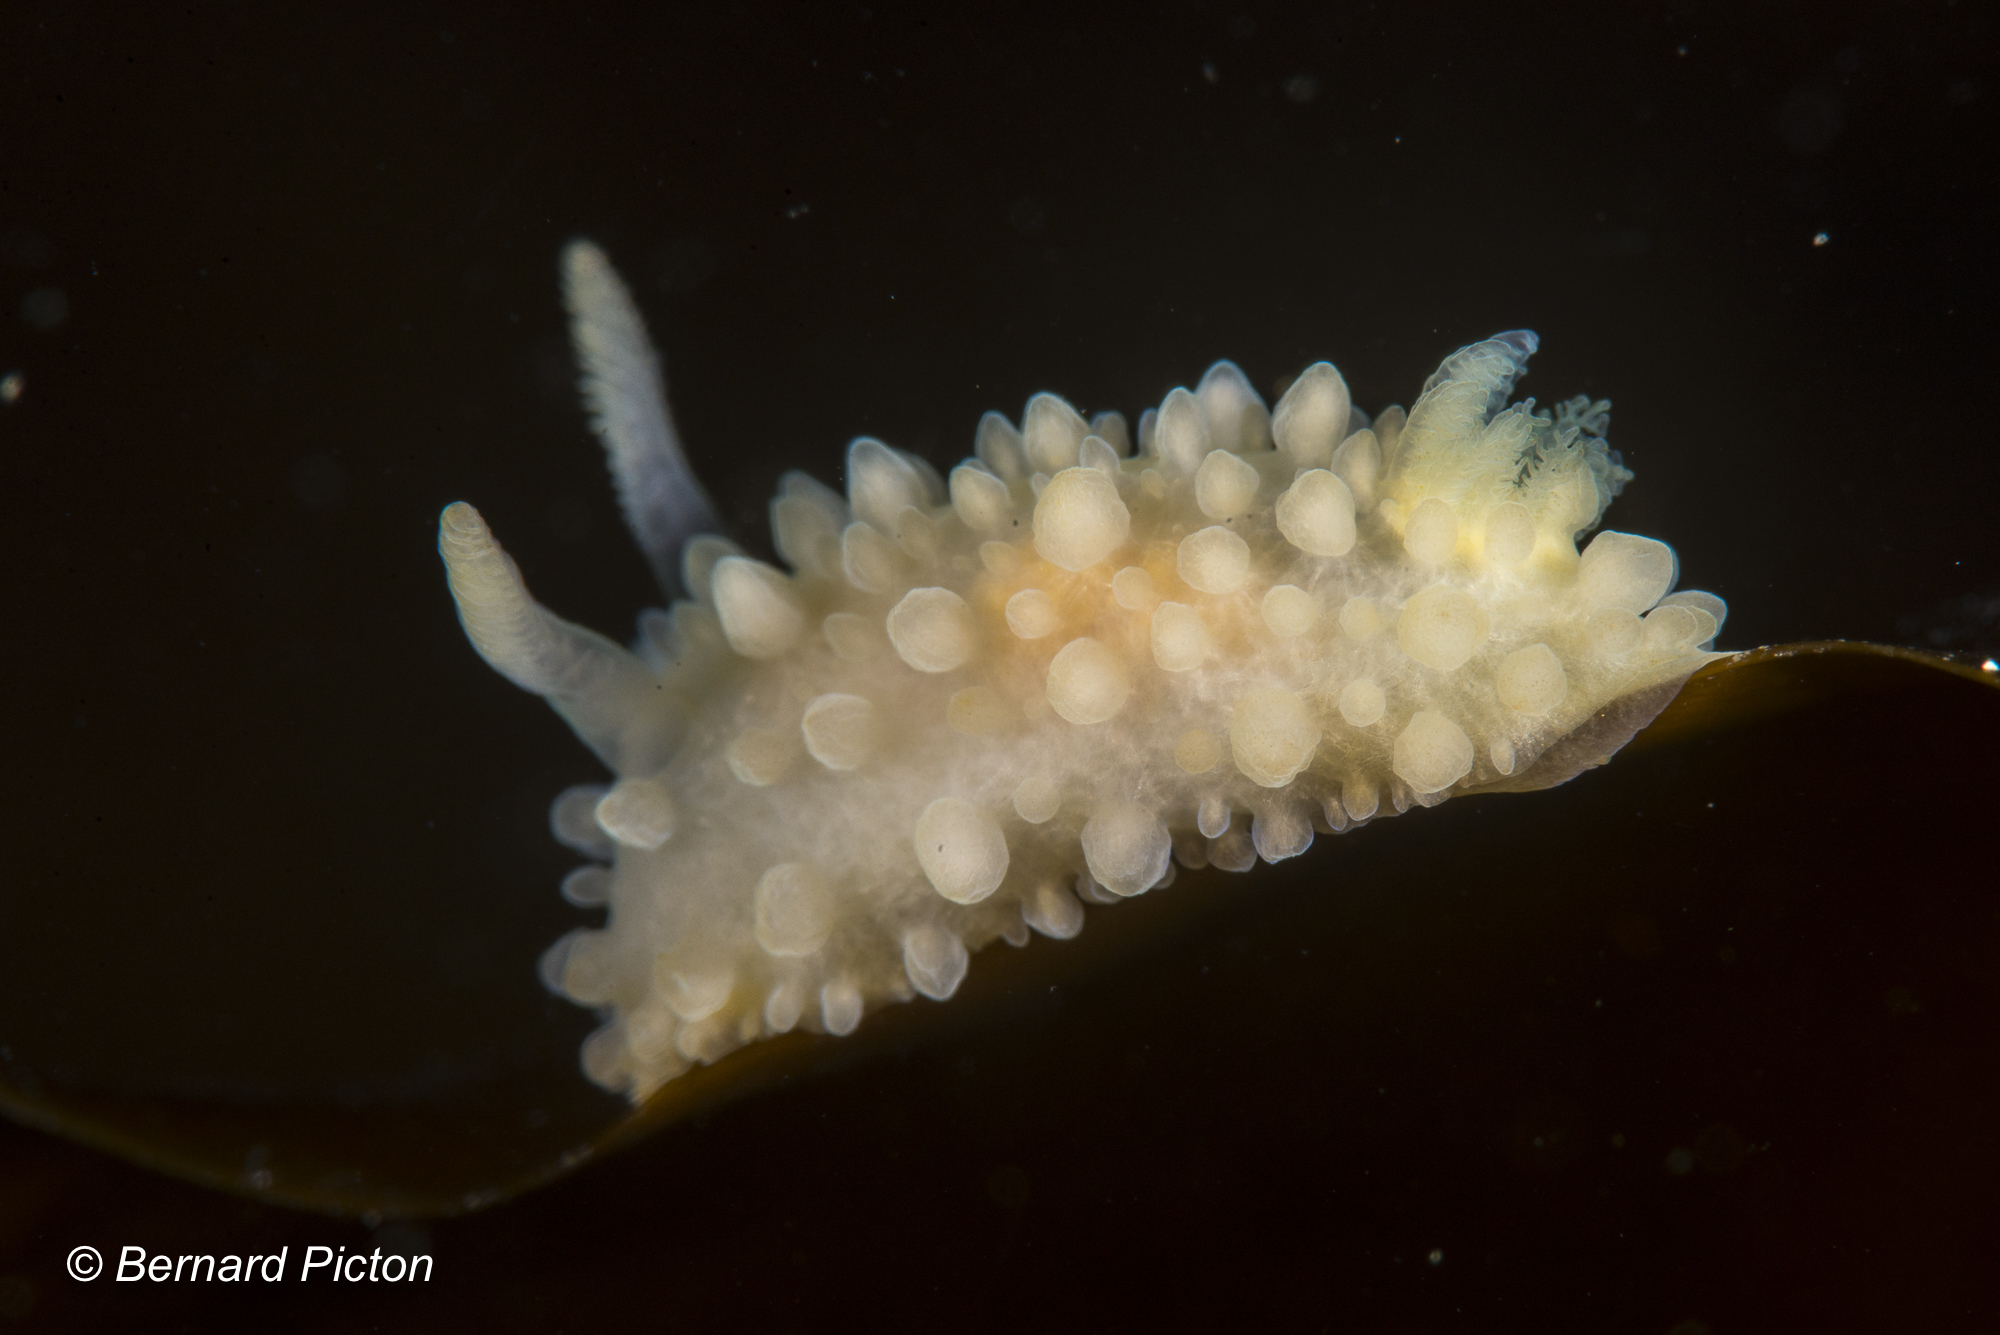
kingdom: Animalia
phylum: Mollusca
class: Gastropoda
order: Nudibranchia
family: Onchidorididae
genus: Adalaria
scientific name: Adalaria loveni
